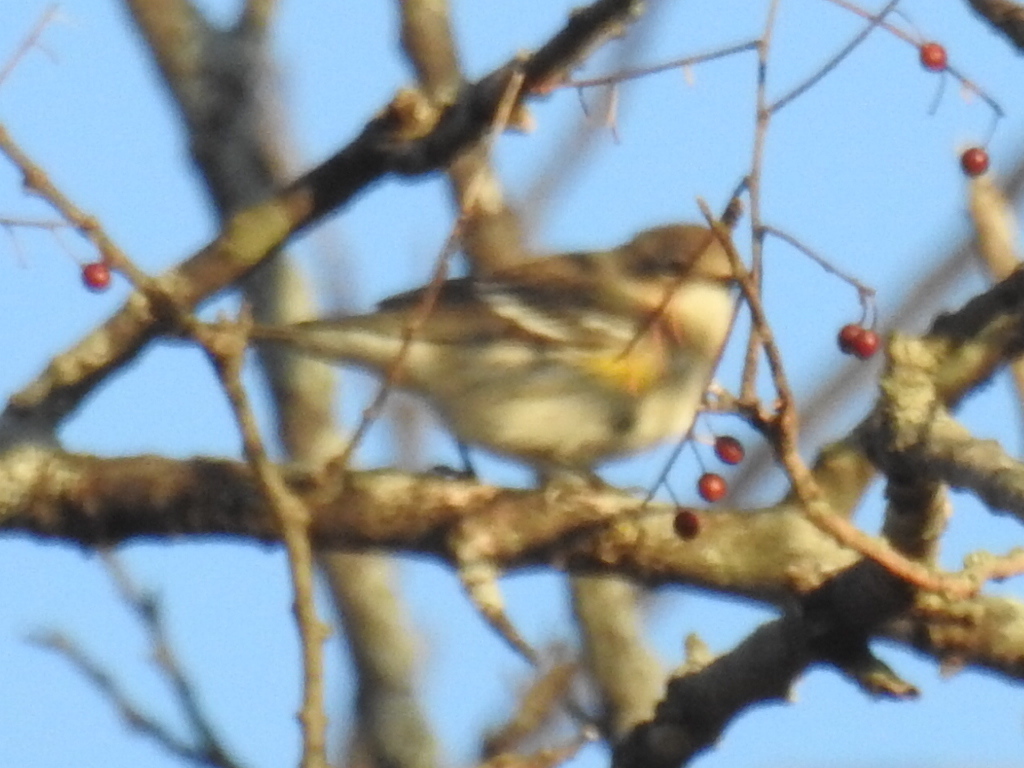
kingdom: Animalia
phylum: Chordata
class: Aves
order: Passeriformes
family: Parulidae
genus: Setophaga
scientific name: Setophaga coronata
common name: Myrtle warbler
